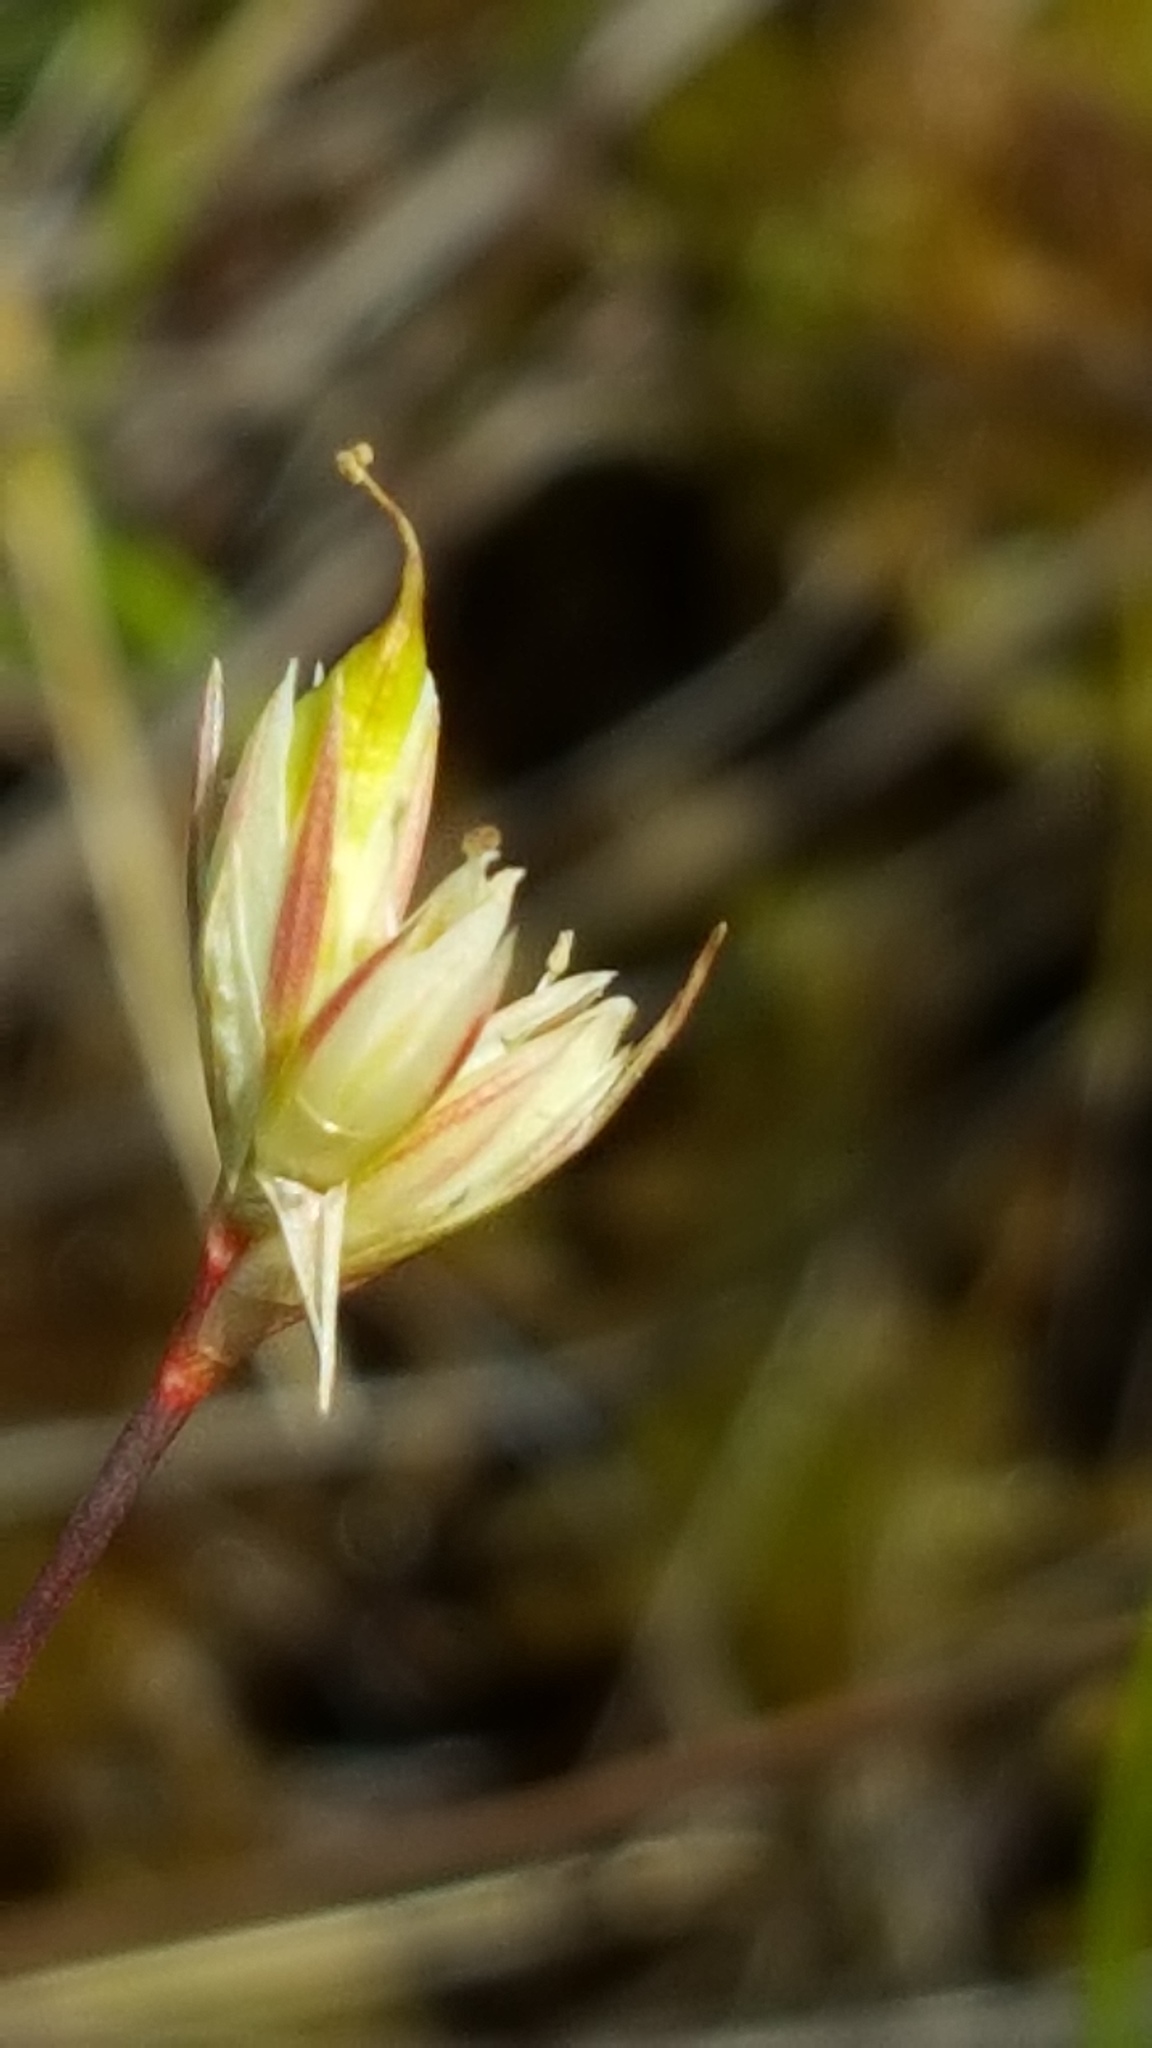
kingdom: Plantae
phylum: Tracheophyta
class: Liliopsida
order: Poales
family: Juncaceae
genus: Juncus
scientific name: Juncus stygius
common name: Bog rush
